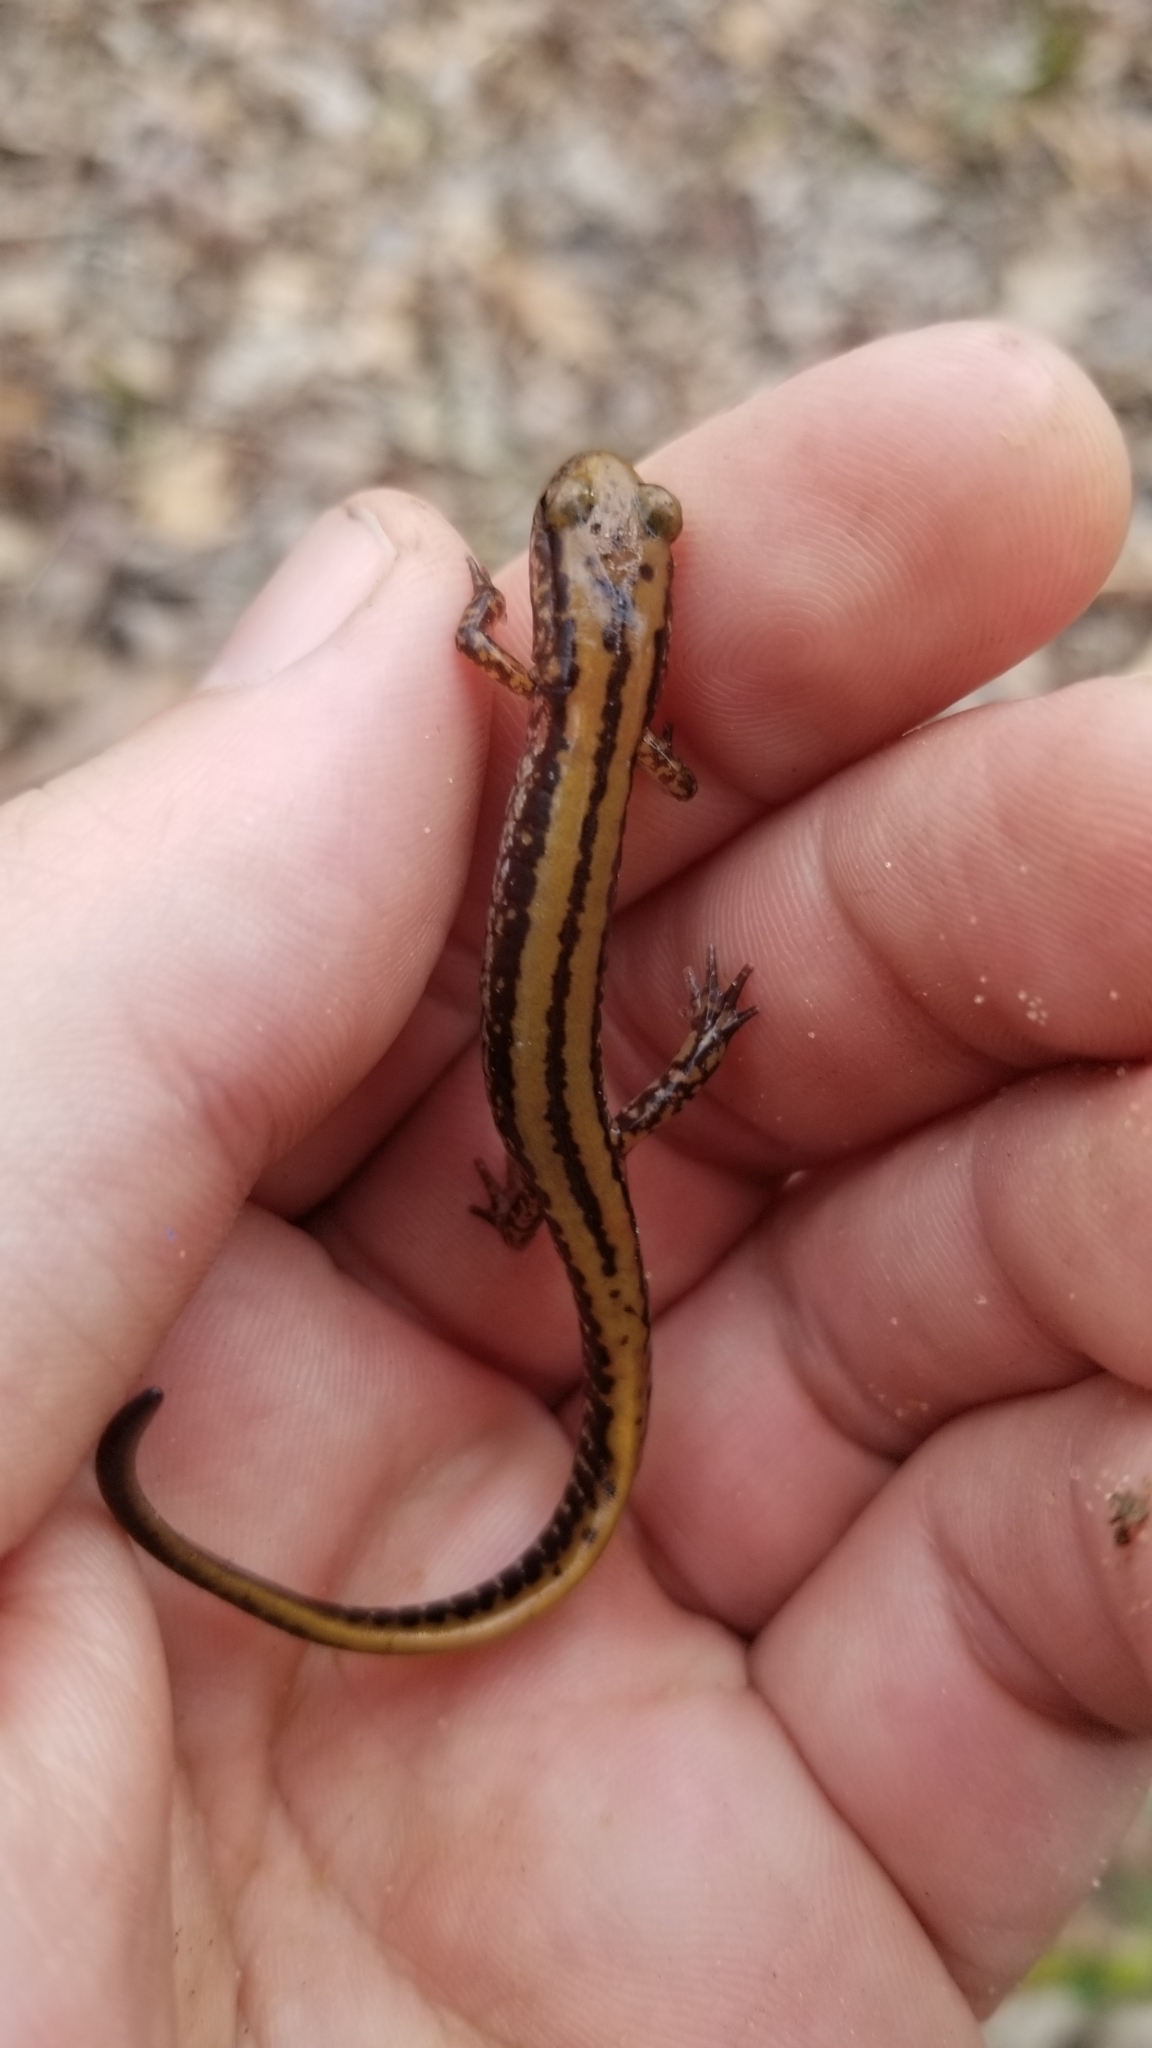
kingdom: Animalia
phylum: Chordata
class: Amphibia
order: Caudata
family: Plethodontidae
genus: Eurycea
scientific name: Eurycea guttolineata
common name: Three-lined salamander
